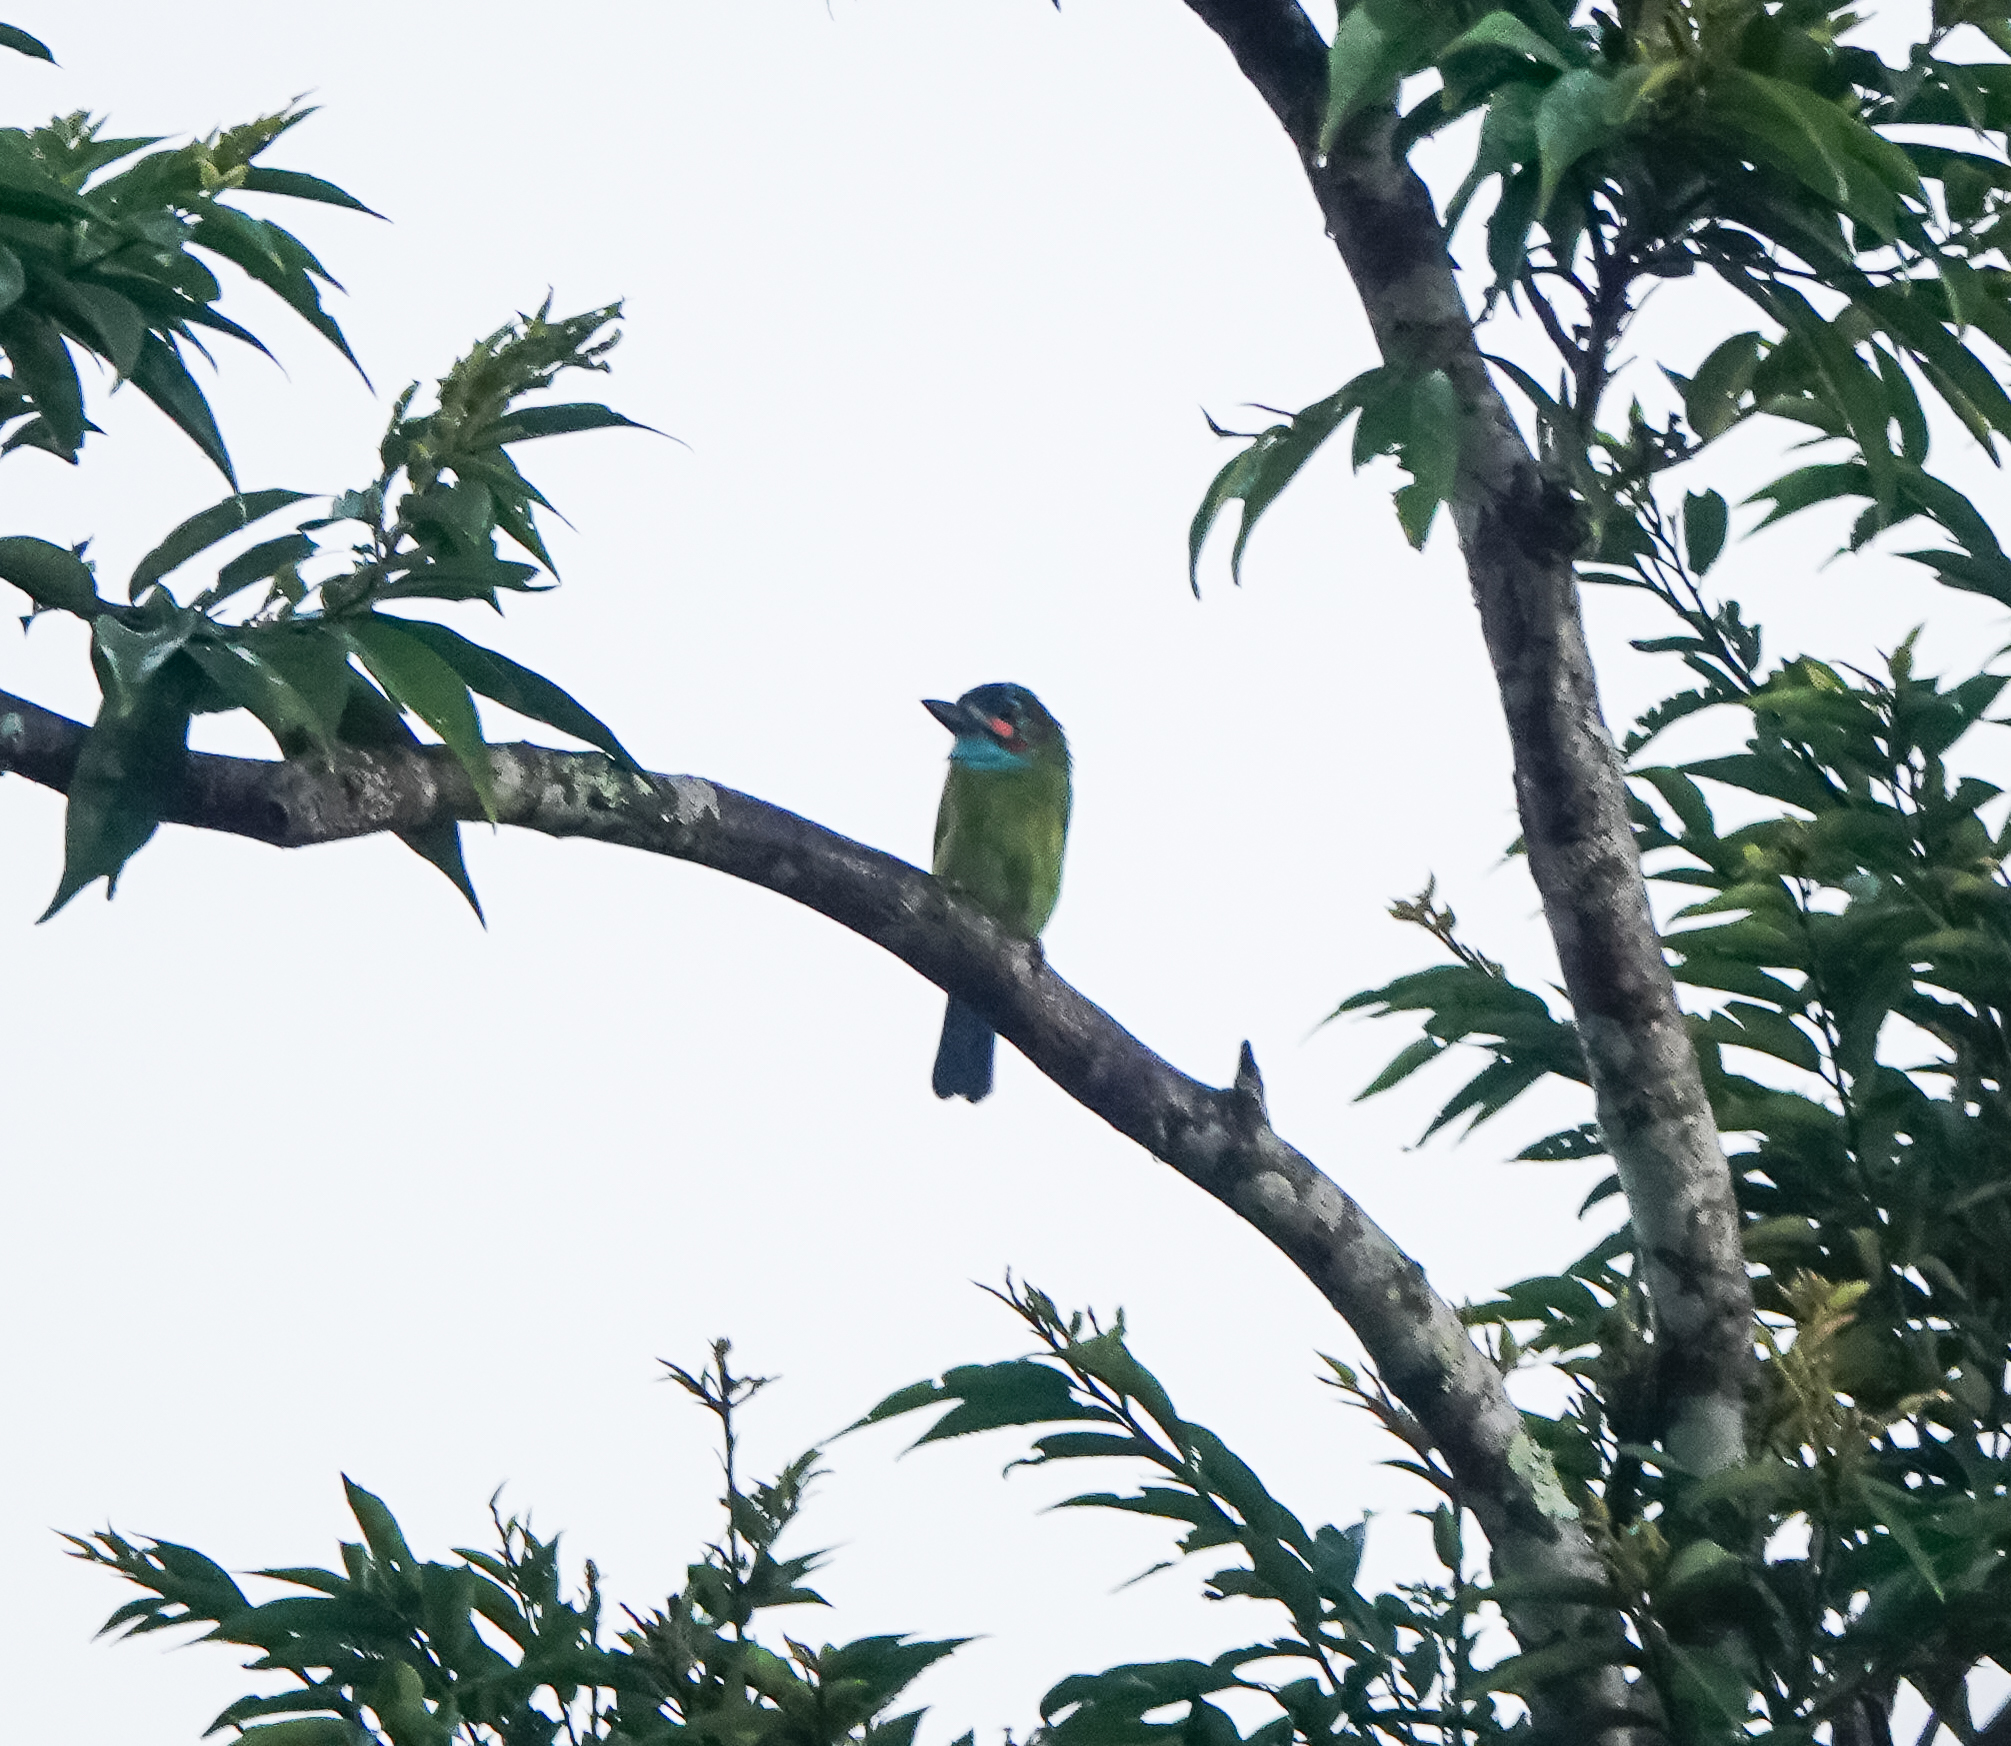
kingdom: Animalia
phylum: Chordata
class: Aves
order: Piciformes
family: Megalaimidae
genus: Psilopogon
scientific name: Psilopogon duvaucelii
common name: Blue-eared barbet
